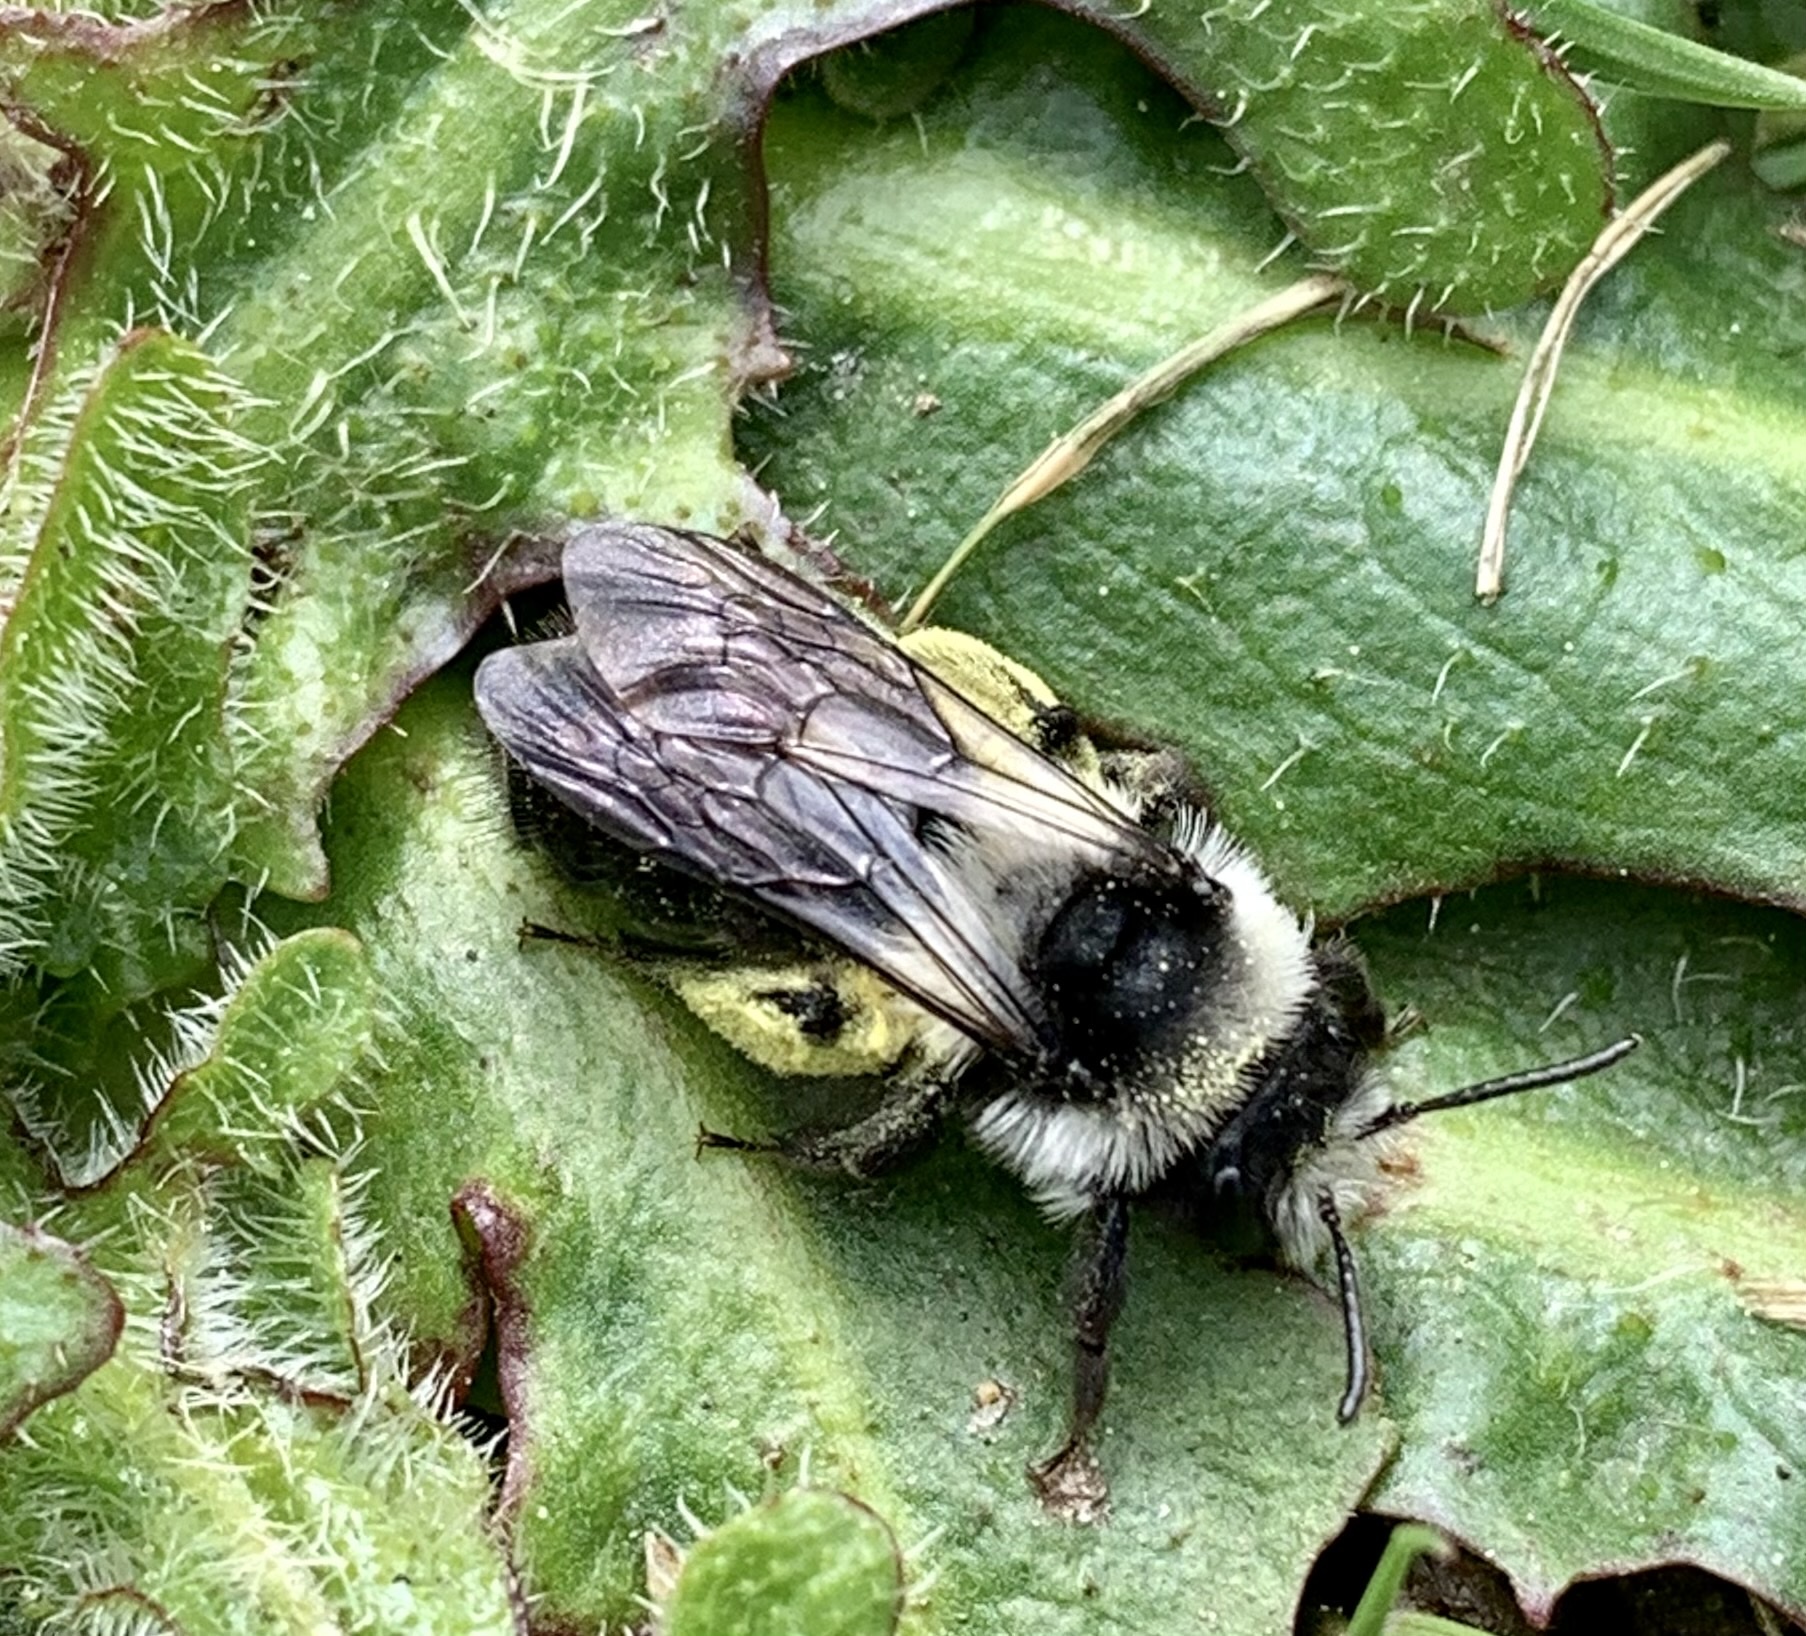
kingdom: Animalia
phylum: Arthropoda
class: Insecta
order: Hymenoptera
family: Andrenidae
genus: Andrena
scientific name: Andrena cineraria
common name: Ashy mining bee
